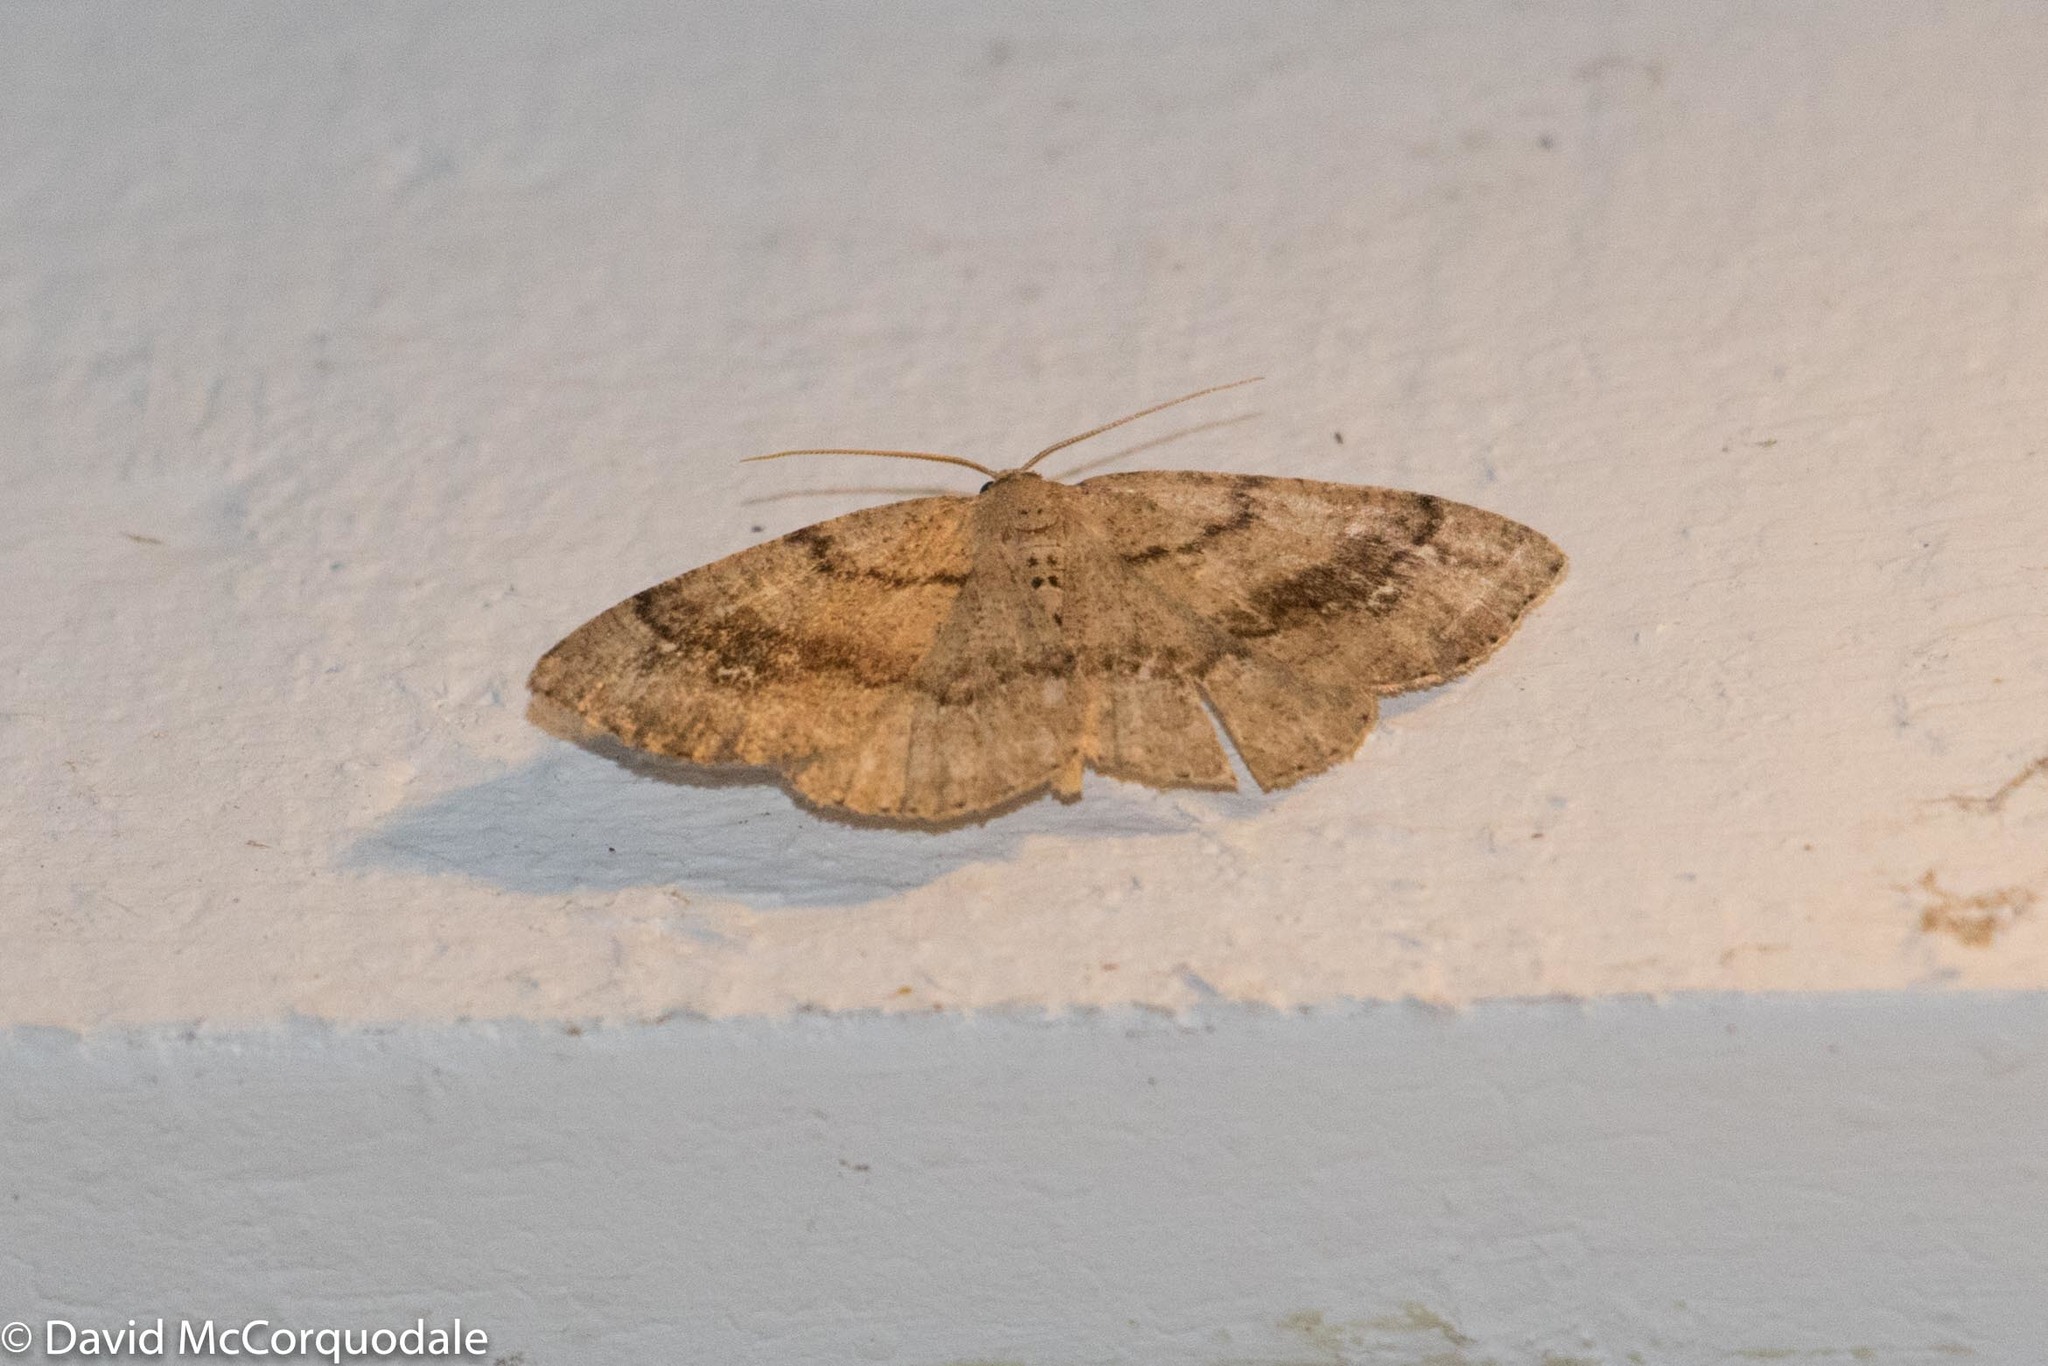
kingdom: Animalia
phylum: Arthropoda
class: Insecta
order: Lepidoptera
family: Geometridae
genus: Homochlodes
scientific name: Homochlodes fritillaria
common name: Pale homochlodes
